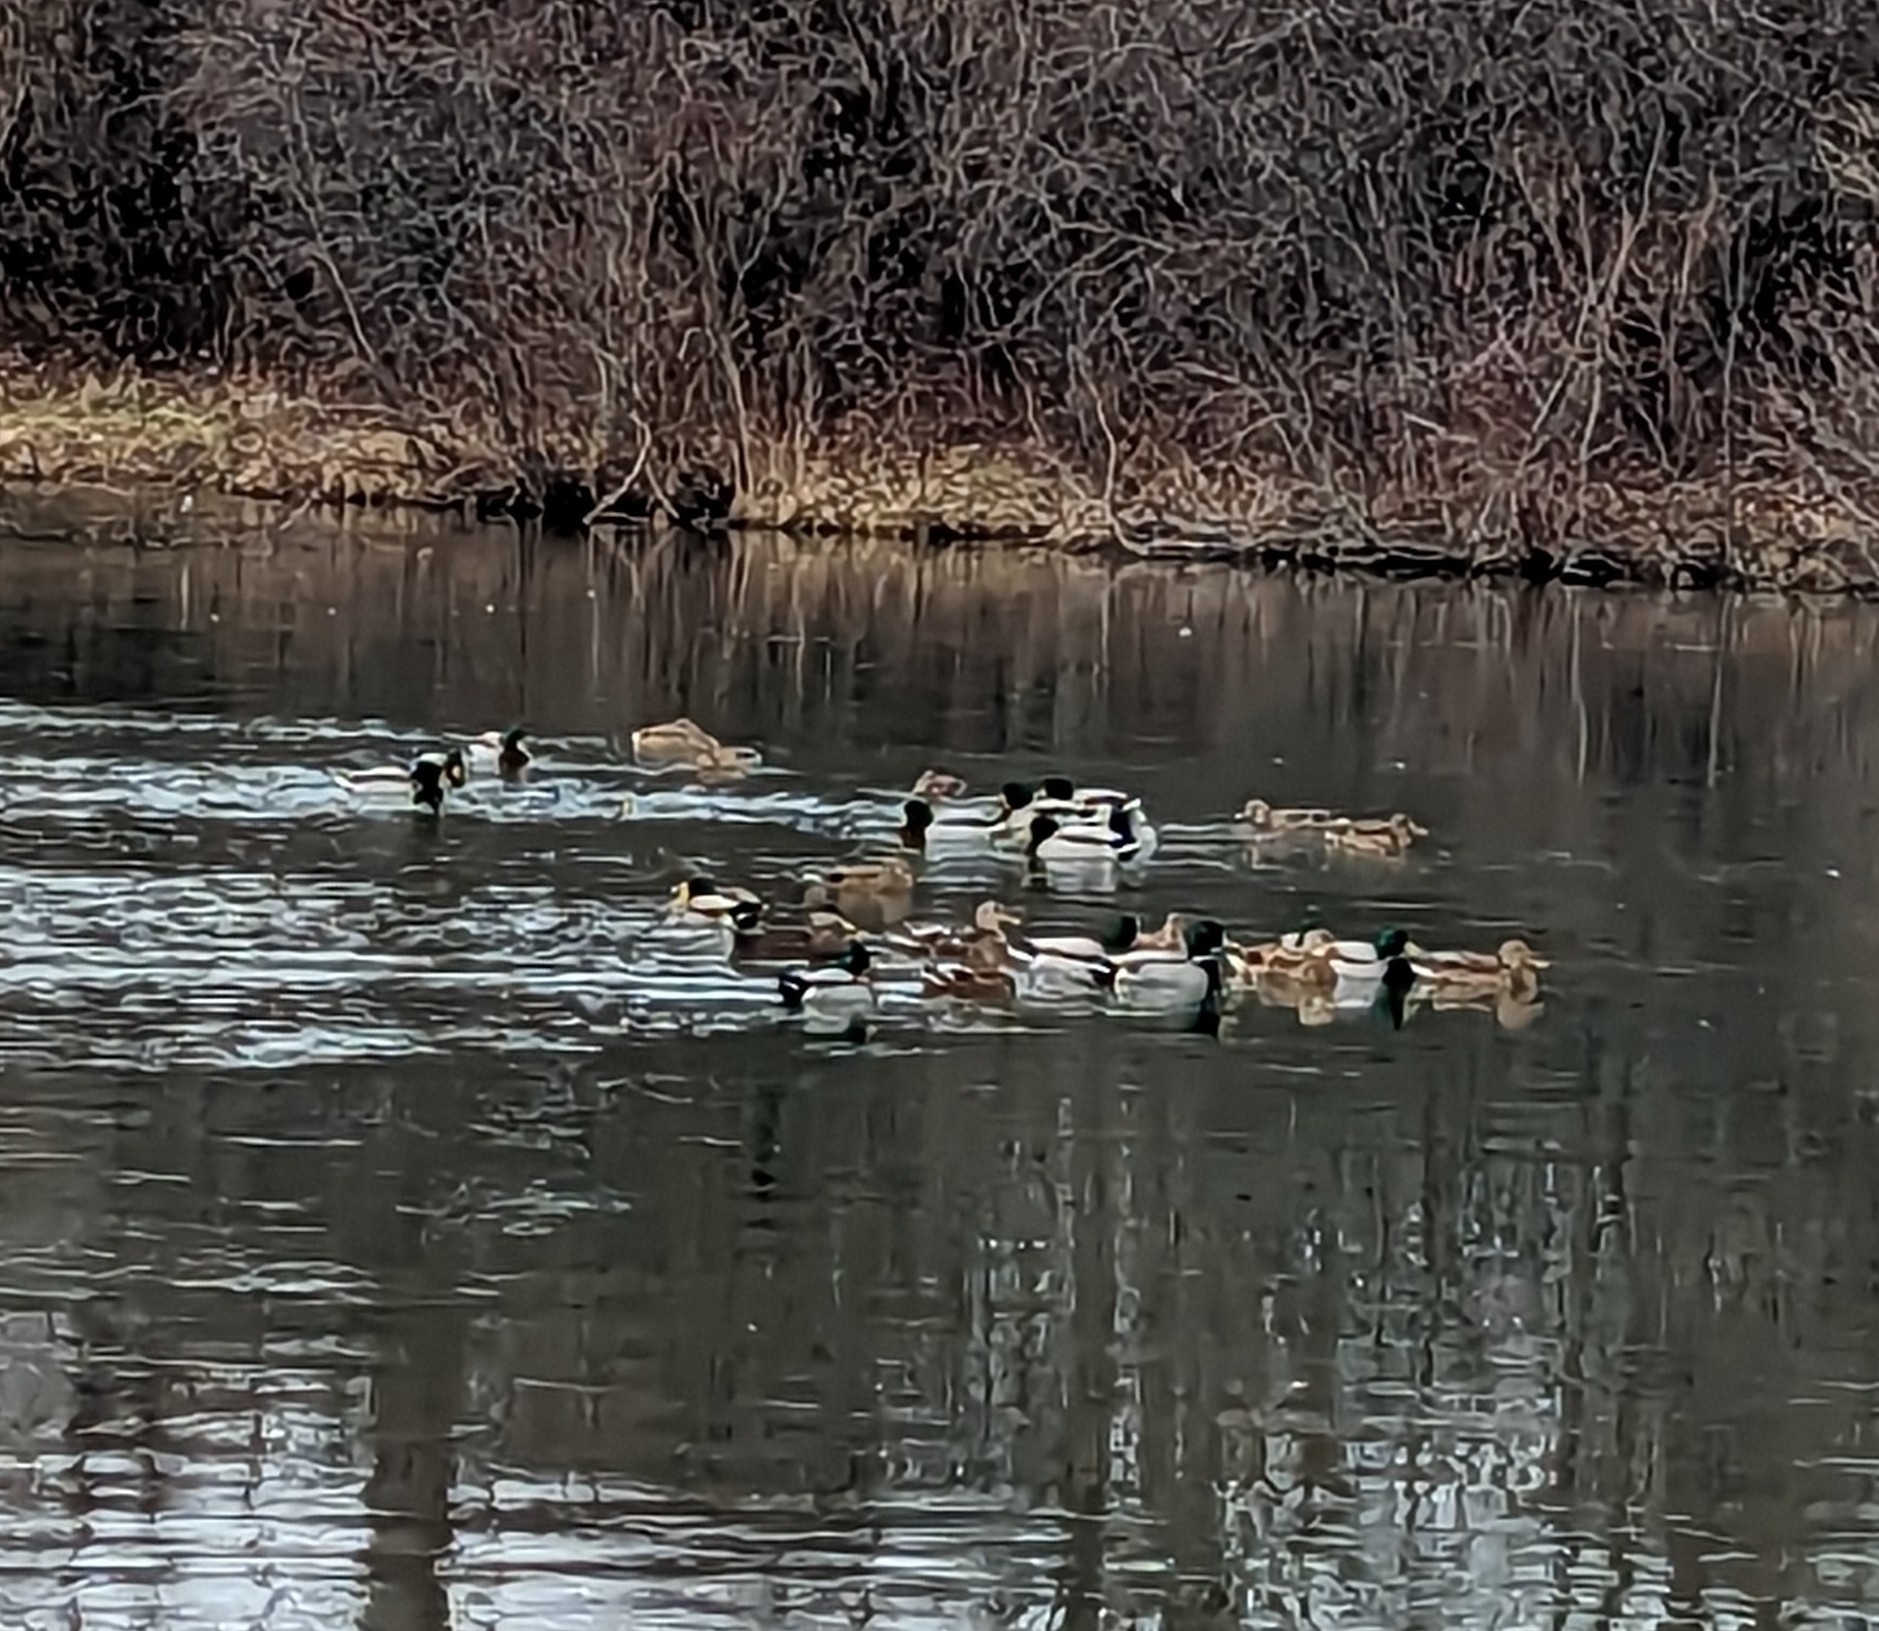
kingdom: Animalia
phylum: Chordata
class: Aves
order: Anseriformes
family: Anatidae
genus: Anas
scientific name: Anas platyrhynchos
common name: Mallard
